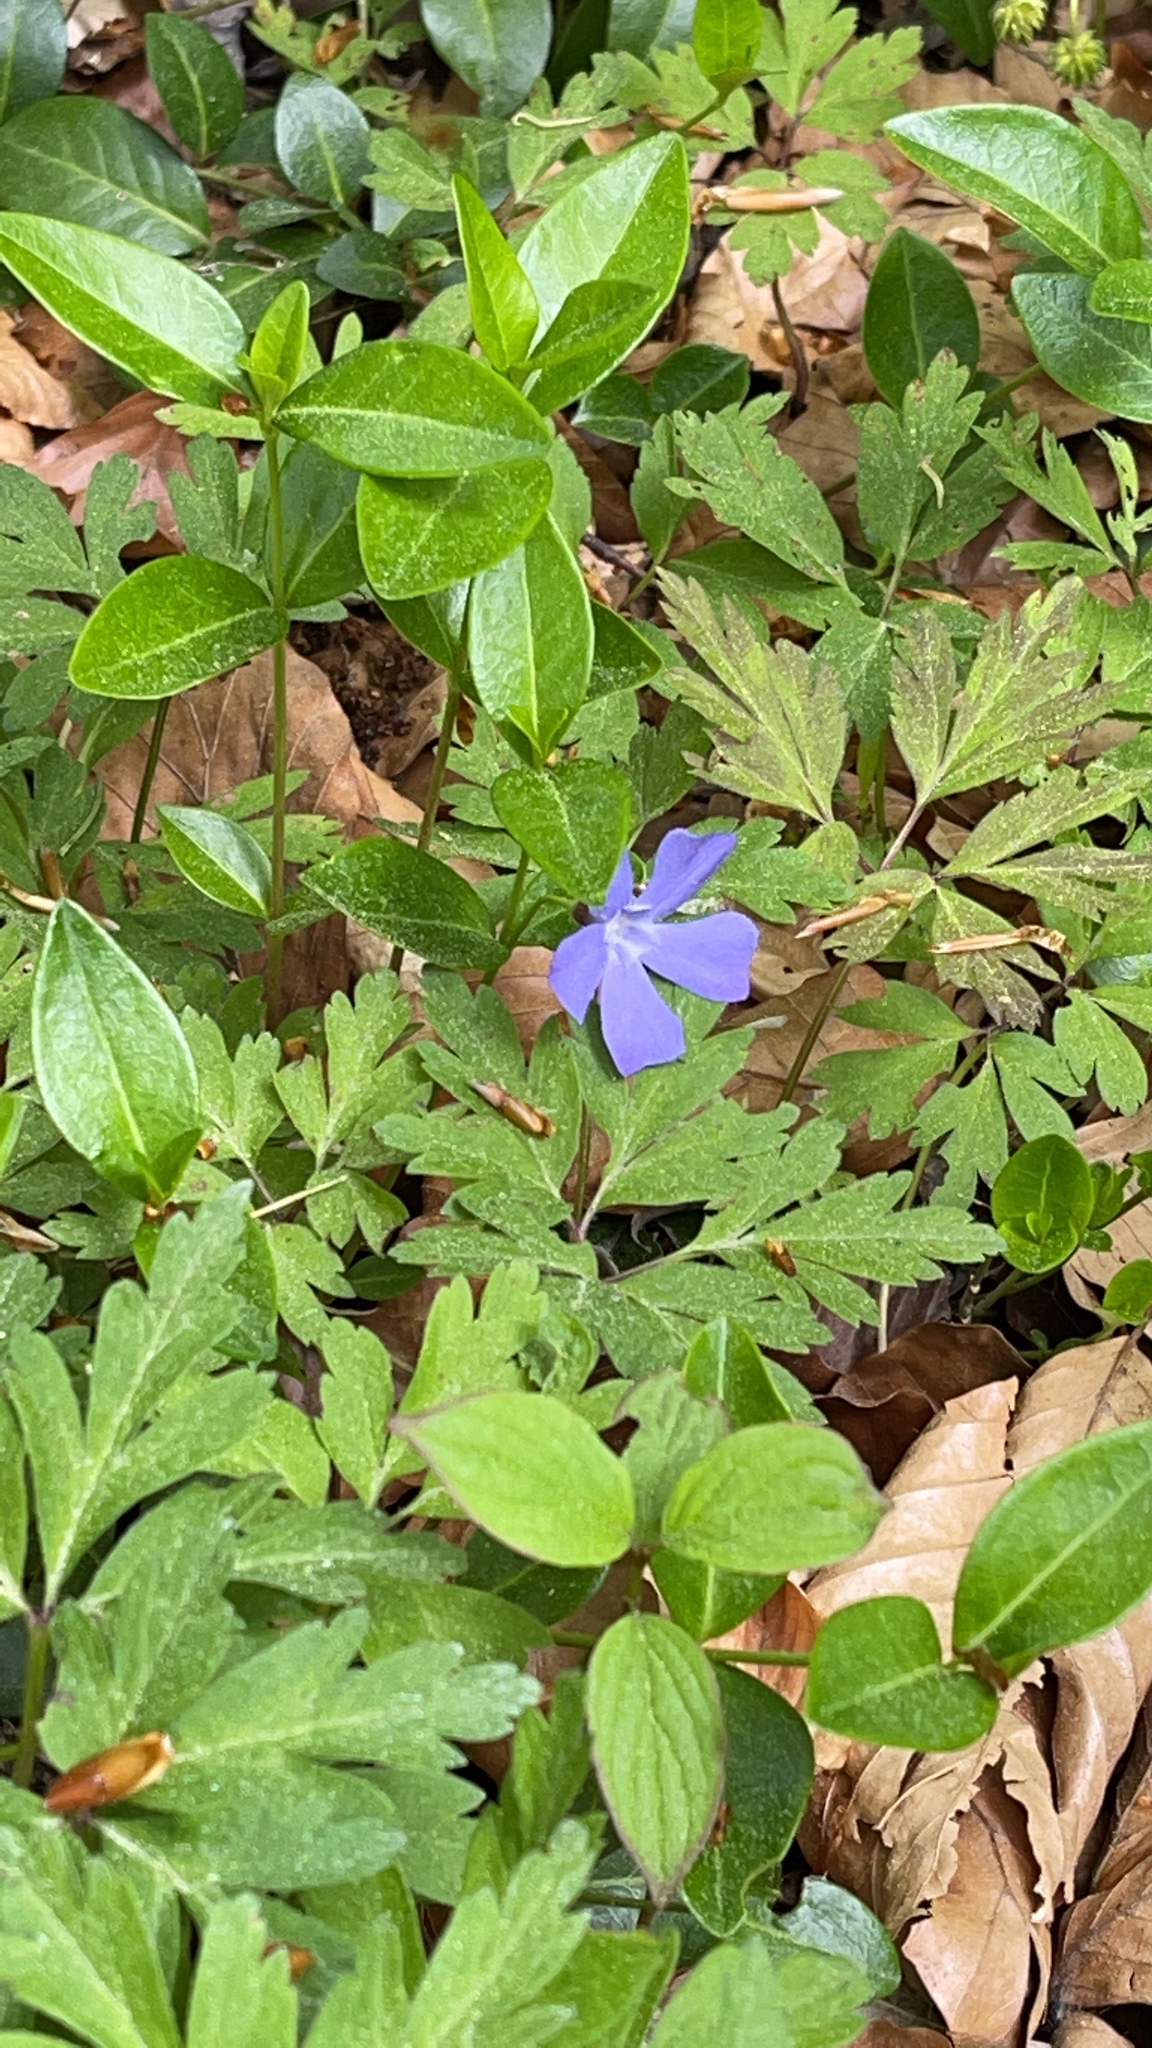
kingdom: Plantae
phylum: Tracheophyta
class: Magnoliopsida
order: Gentianales
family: Apocynaceae
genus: Vinca
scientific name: Vinca minor
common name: Lesser periwinkle
